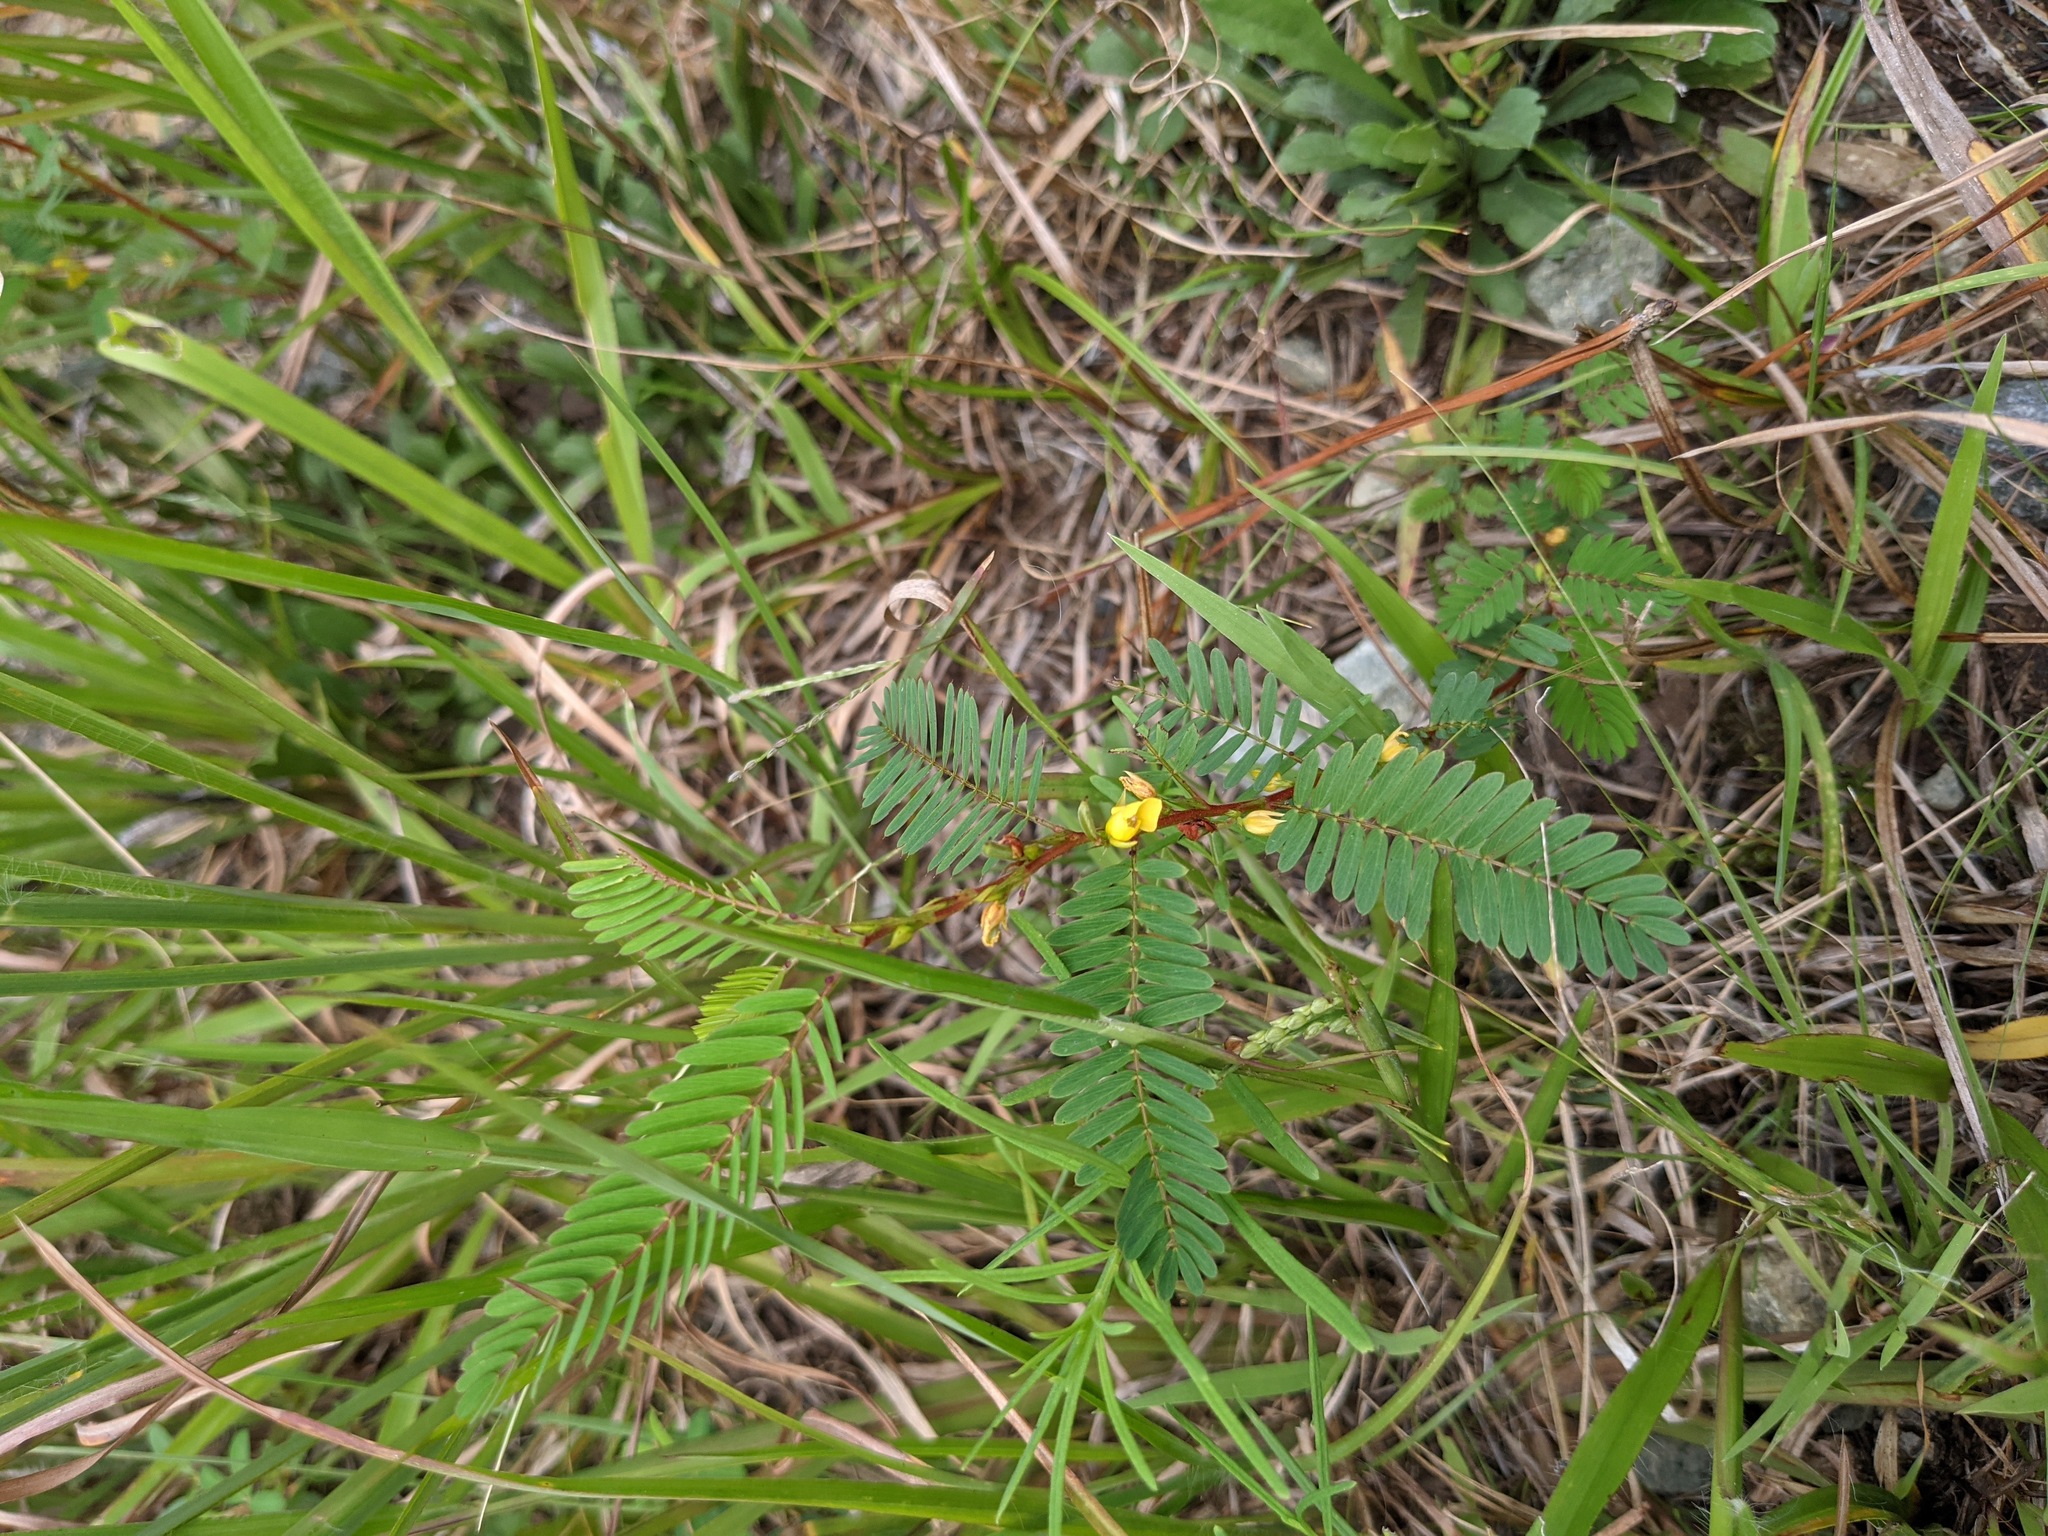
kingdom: Plantae
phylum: Tracheophyta
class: Magnoliopsida
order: Fabales
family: Fabaceae
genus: Chamaecrista
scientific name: Chamaecrista nictitans
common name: Sensitive cassia
